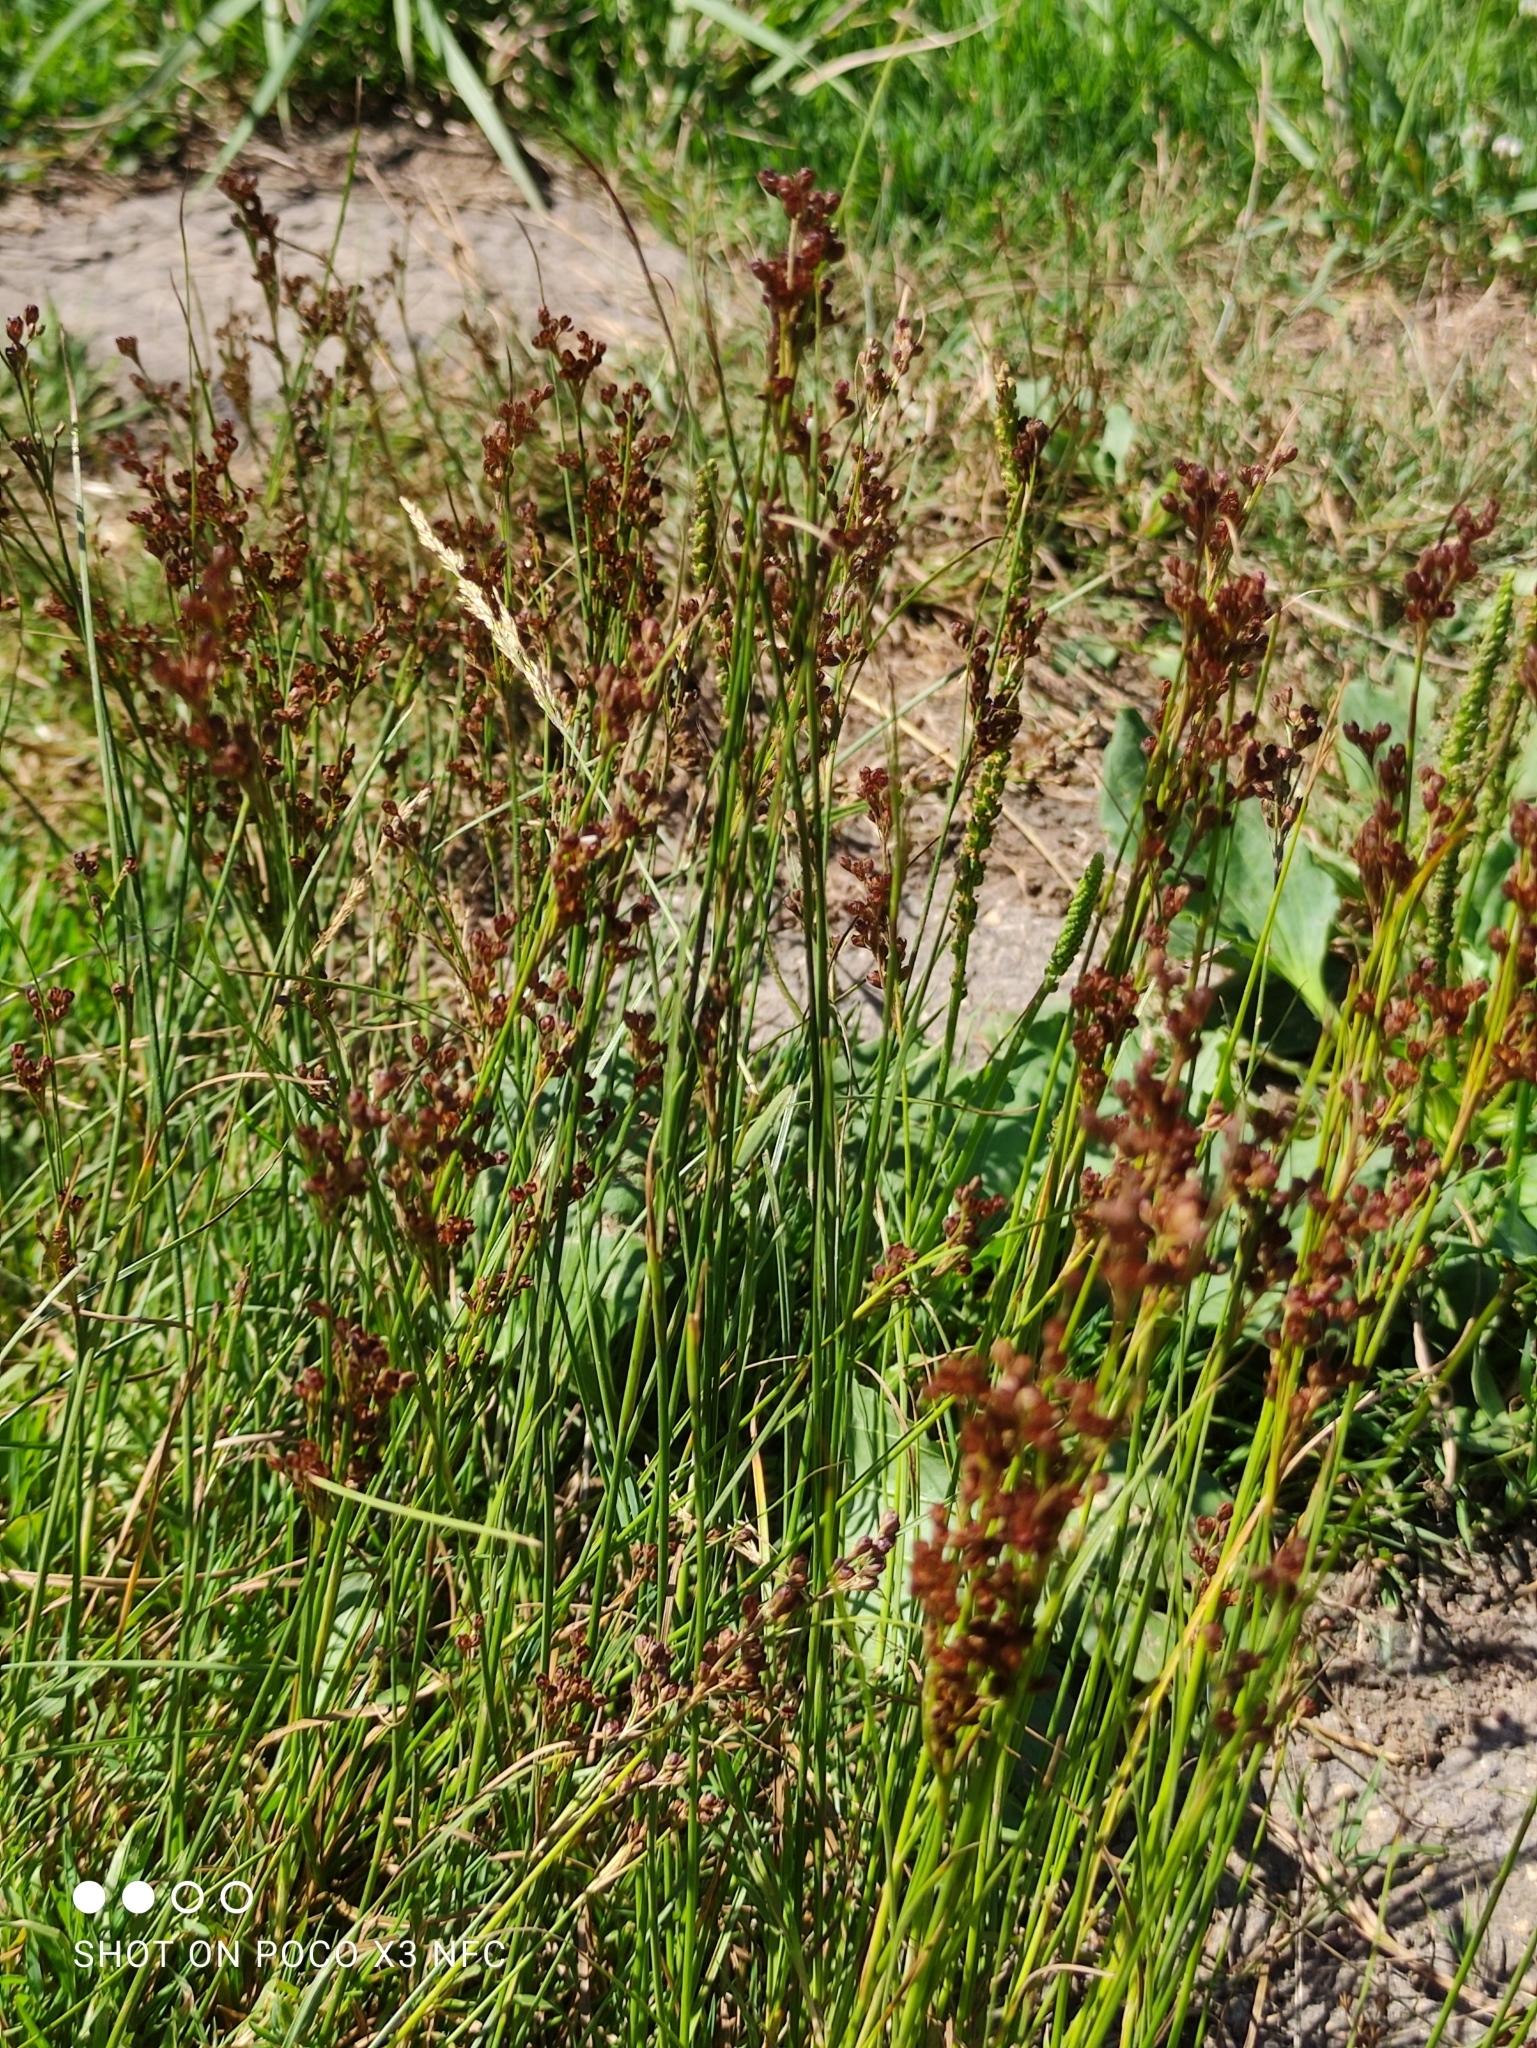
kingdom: Plantae
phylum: Tracheophyta
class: Liliopsida
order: Poales
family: Juncaceae
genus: Juncus
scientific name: Juncus compressus
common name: Round-fruited rush
